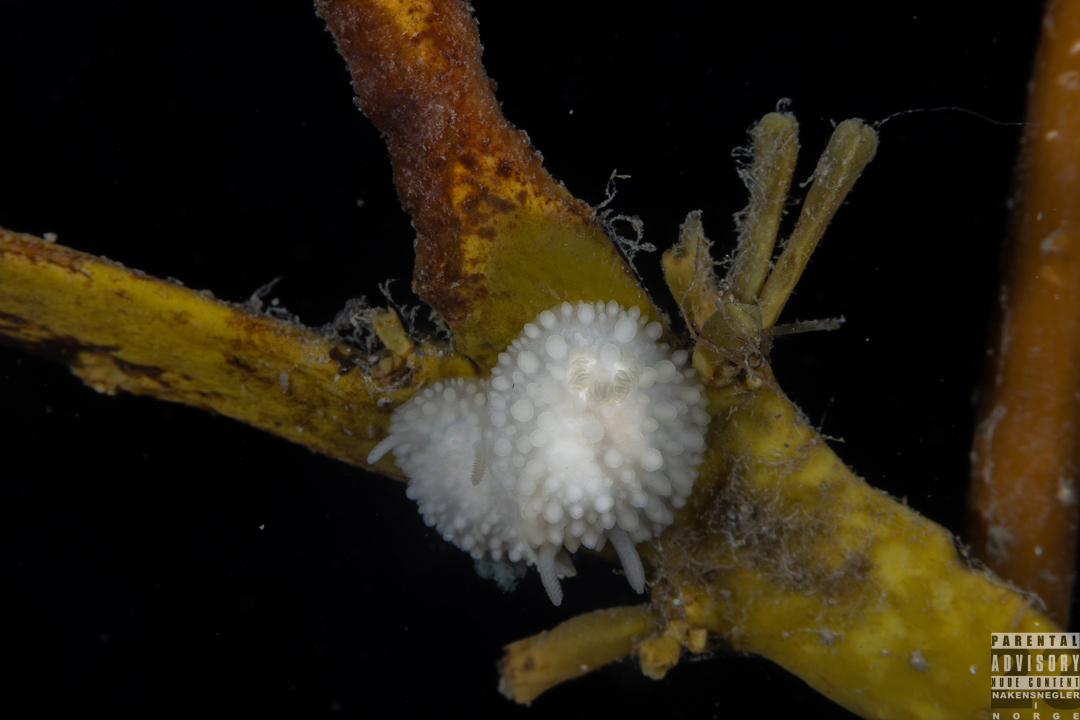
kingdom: Animalia
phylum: Mollusca
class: Gastropoda
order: Nudibranchia
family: Onchidorididae
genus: Adalaria
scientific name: Adalaria proxima
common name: False doris
